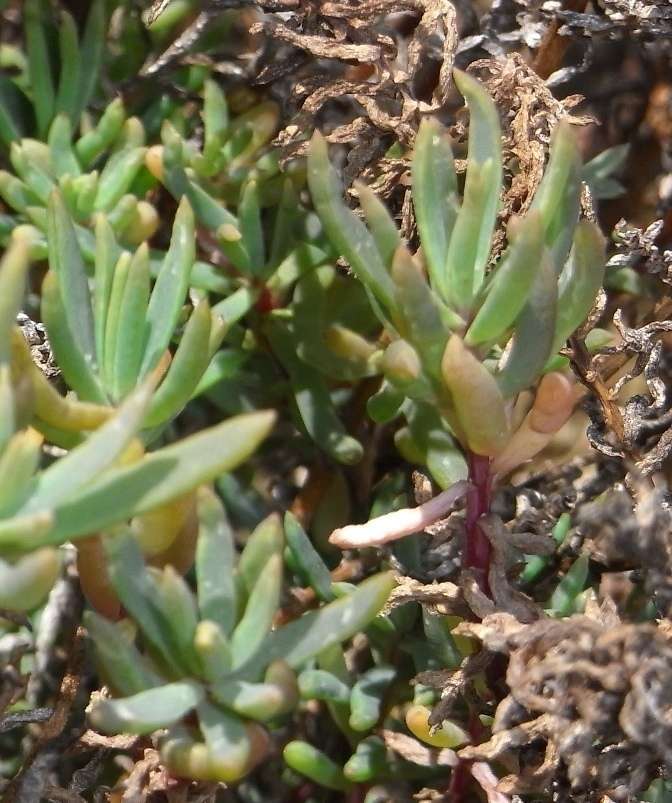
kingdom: Plantae
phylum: Tracheophyta
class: Magnoliopsida
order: Caryophyllales
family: Amaranthaceae
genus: Suaeda
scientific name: Suaeda australis
